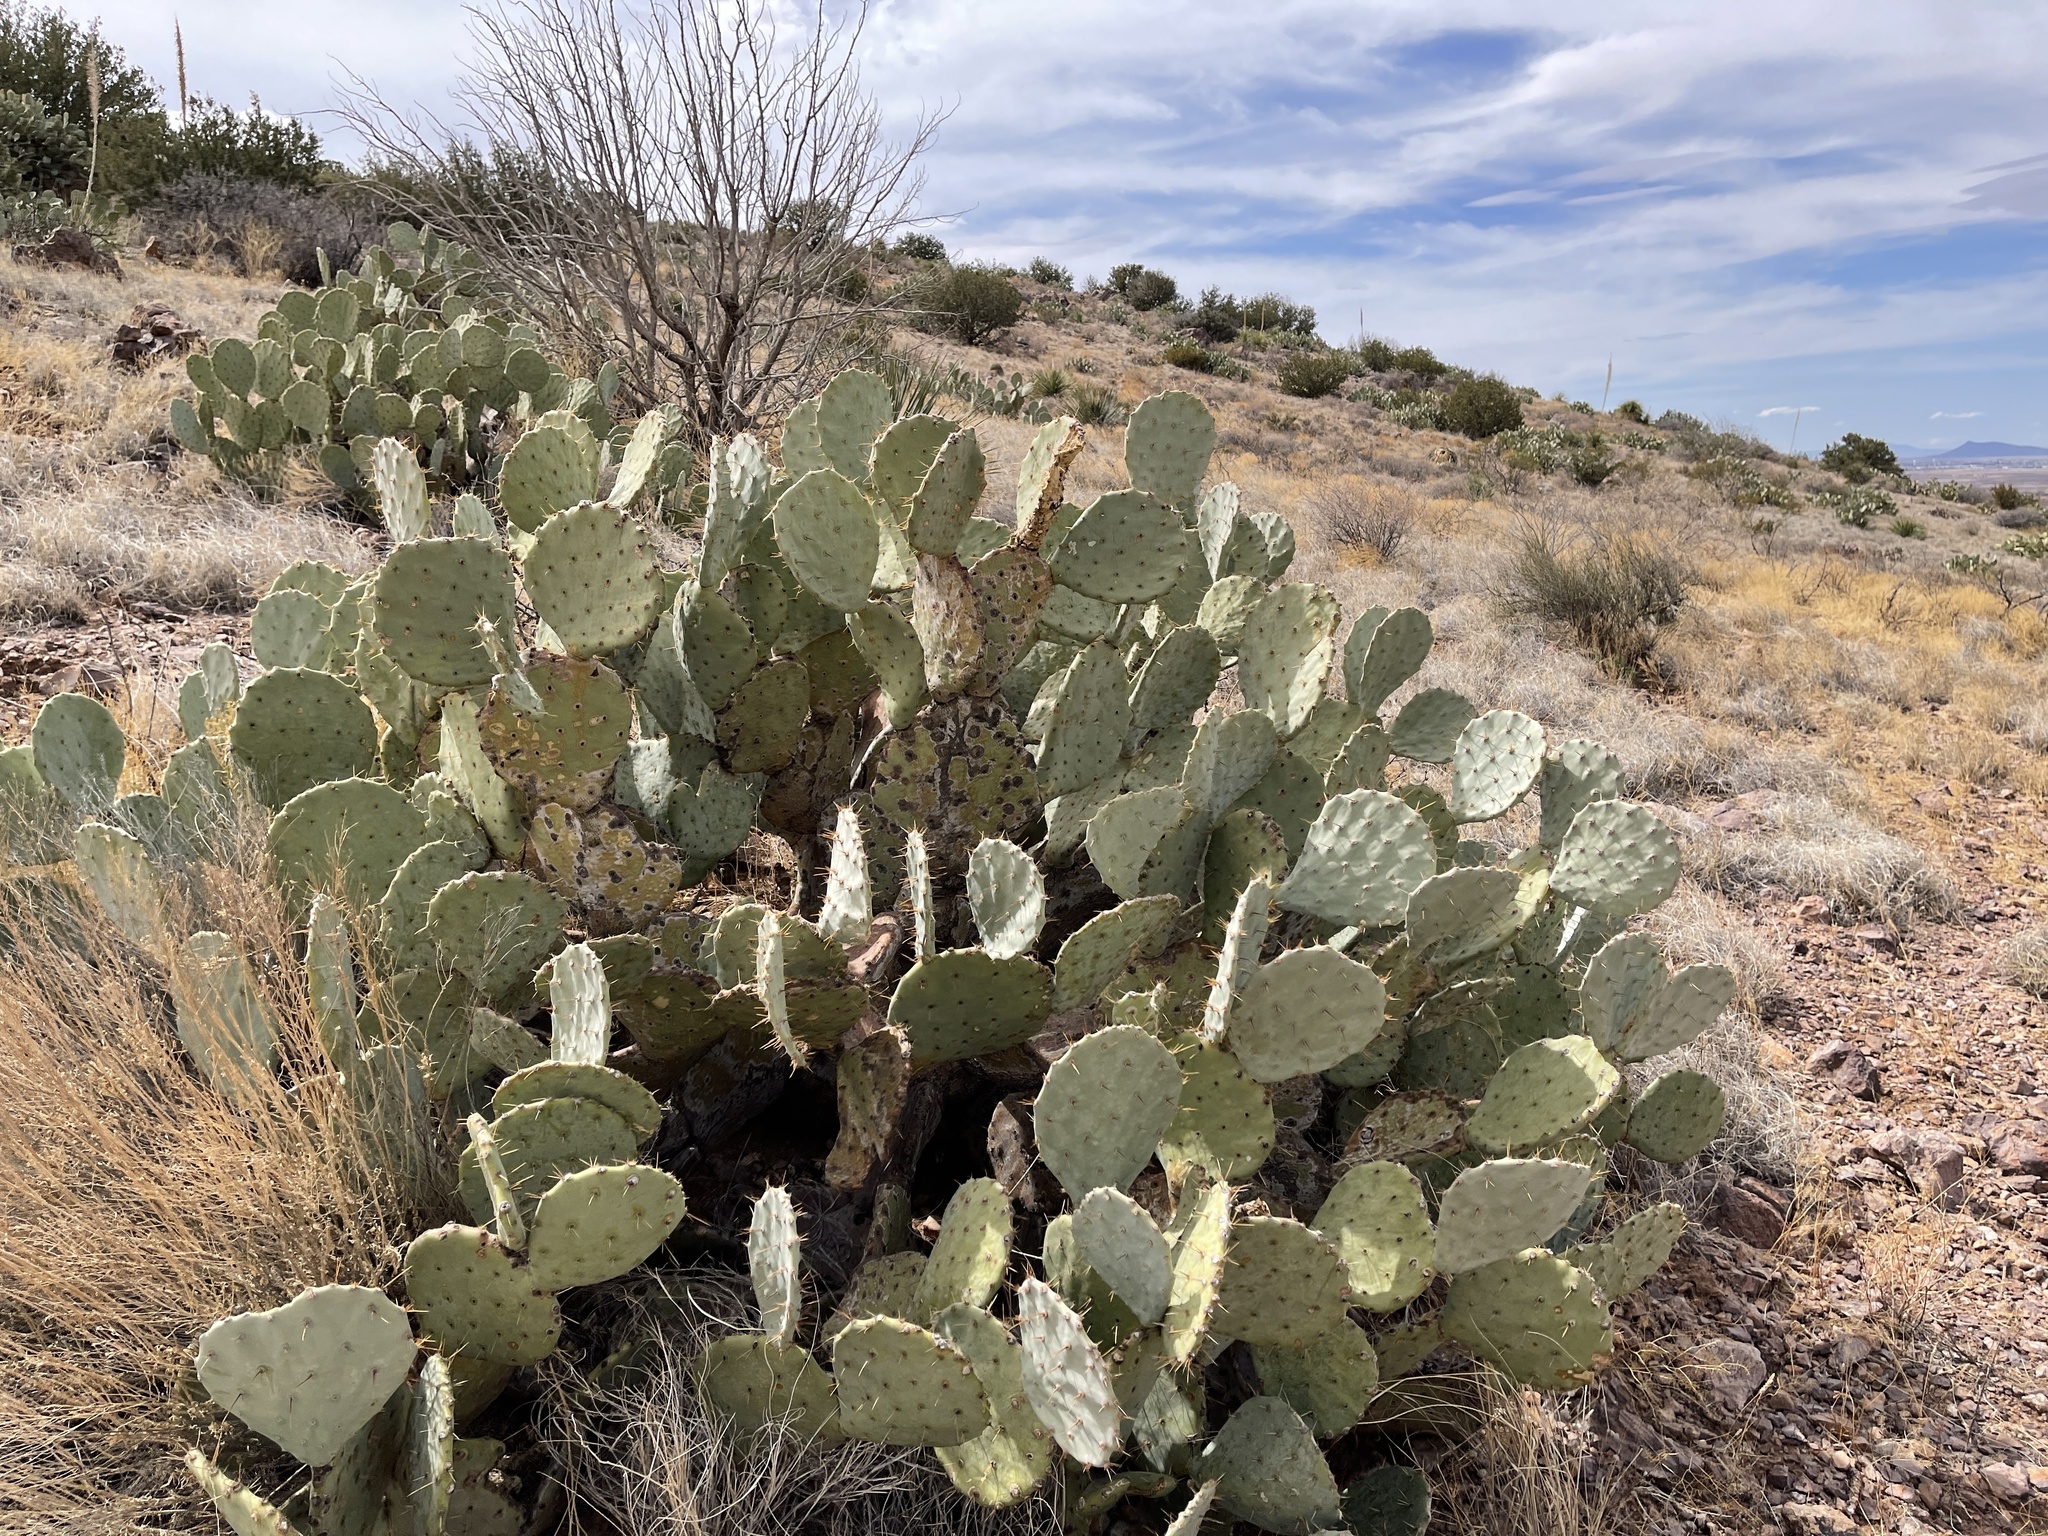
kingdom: Plantae
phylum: Tracheophyta
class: Magnoliopsida
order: Caryophyllales
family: Cactaceae
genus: Opuntia
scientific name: Opuntia engelmannii
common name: Cactus-apple
